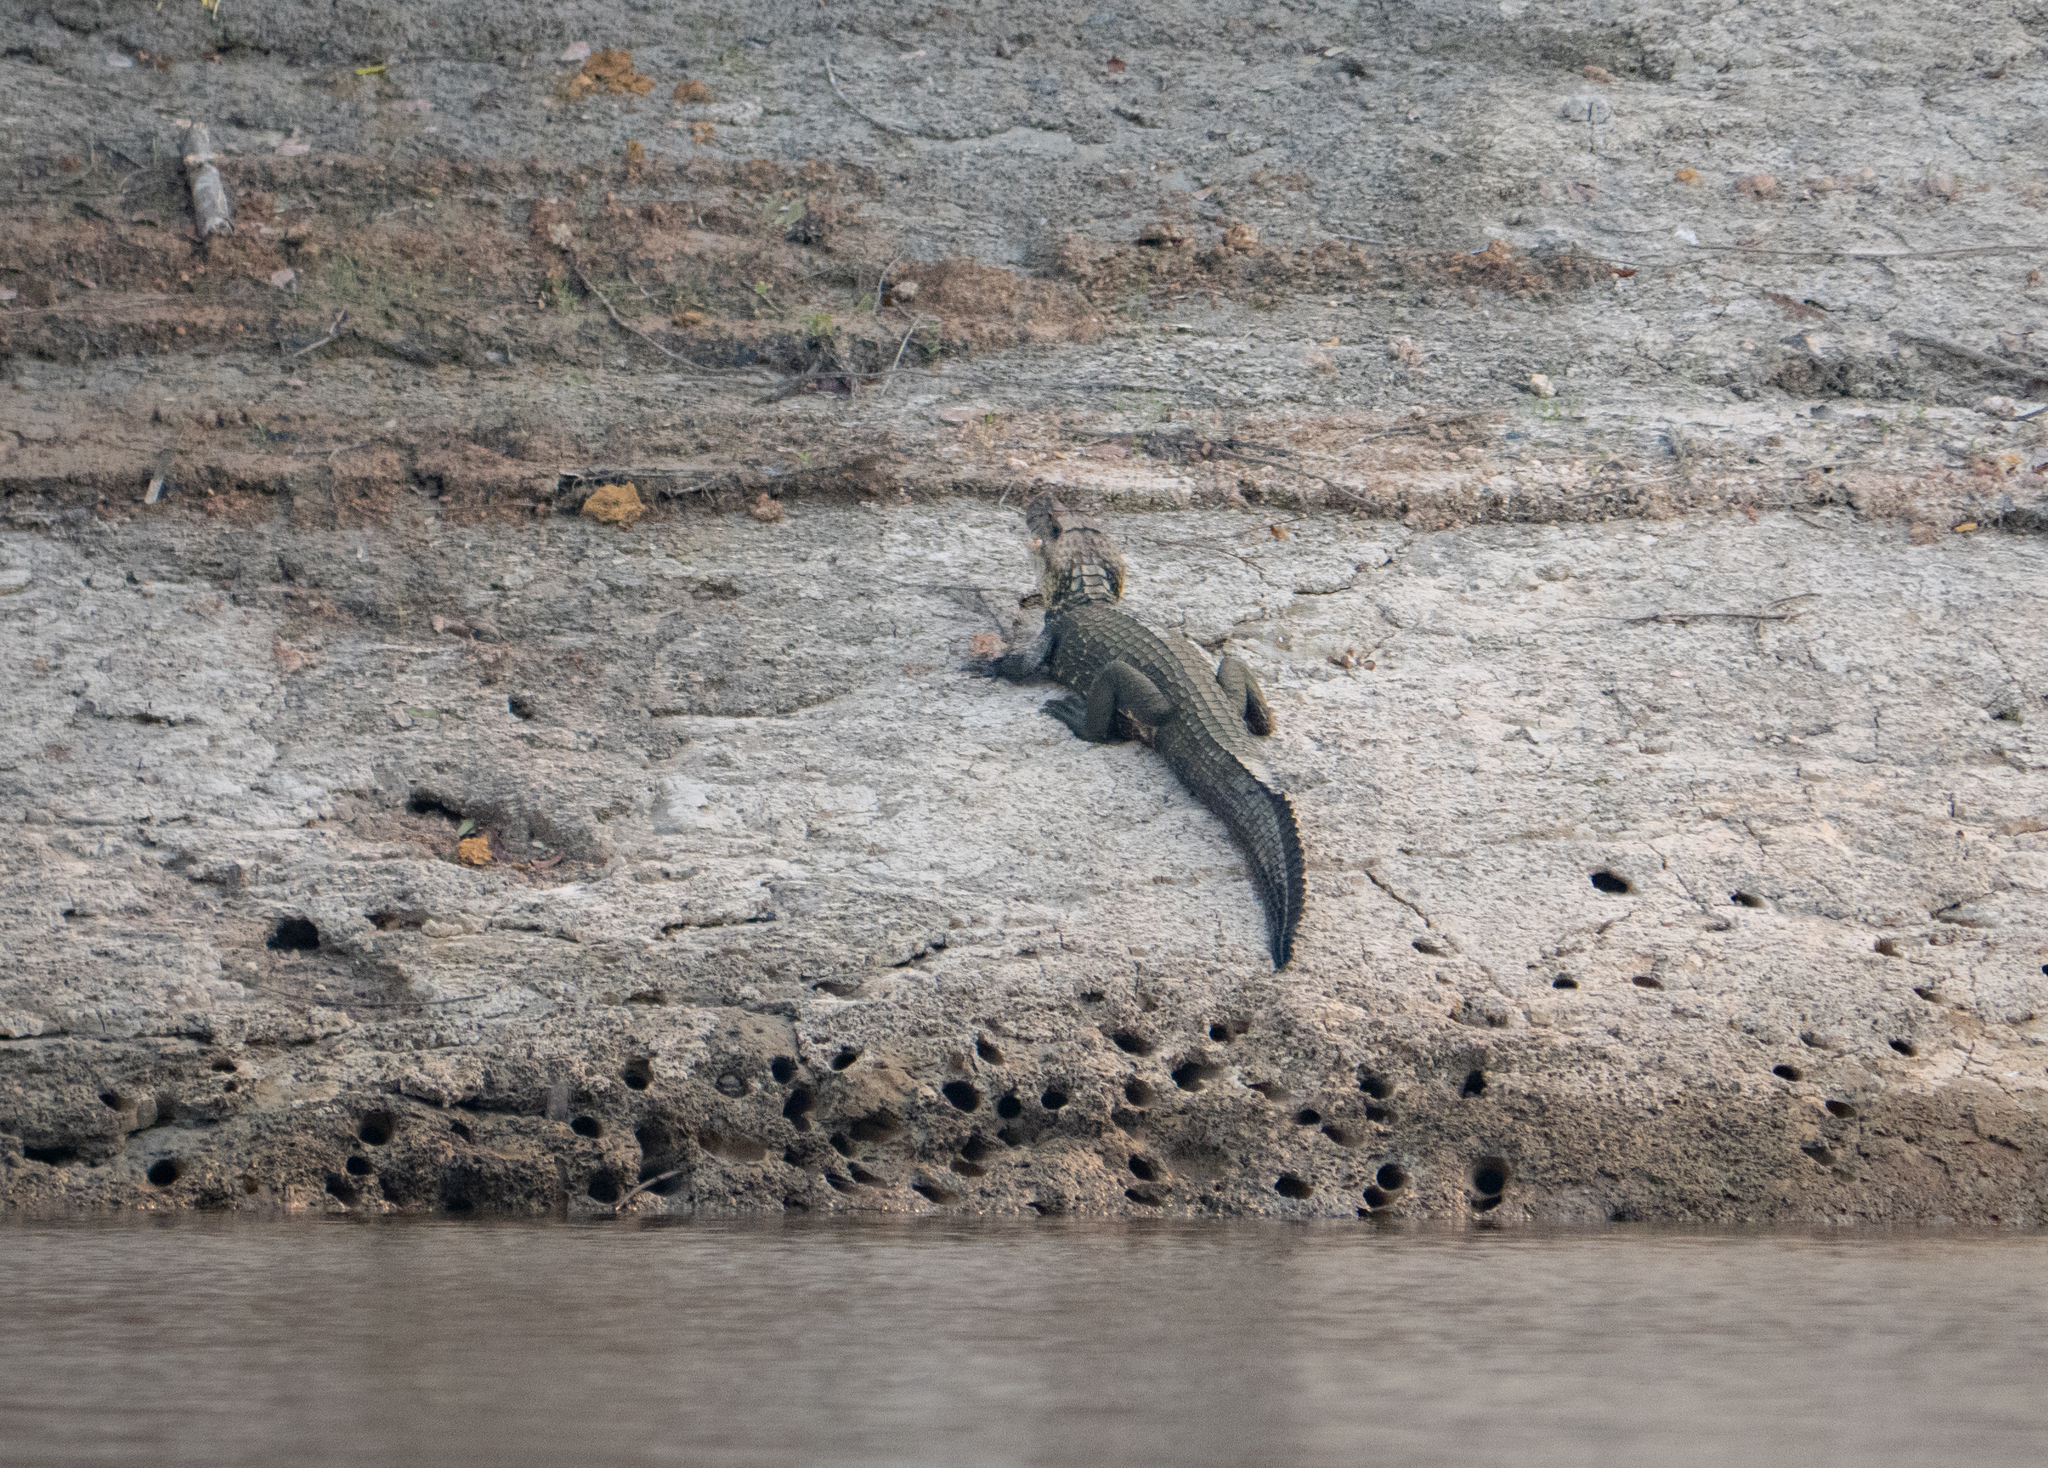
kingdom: Animalia
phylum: Chordata
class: Crocodylia
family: Alligatoridae
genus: Melanosuchus
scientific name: Melanosuchus niger
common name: Black caiman
